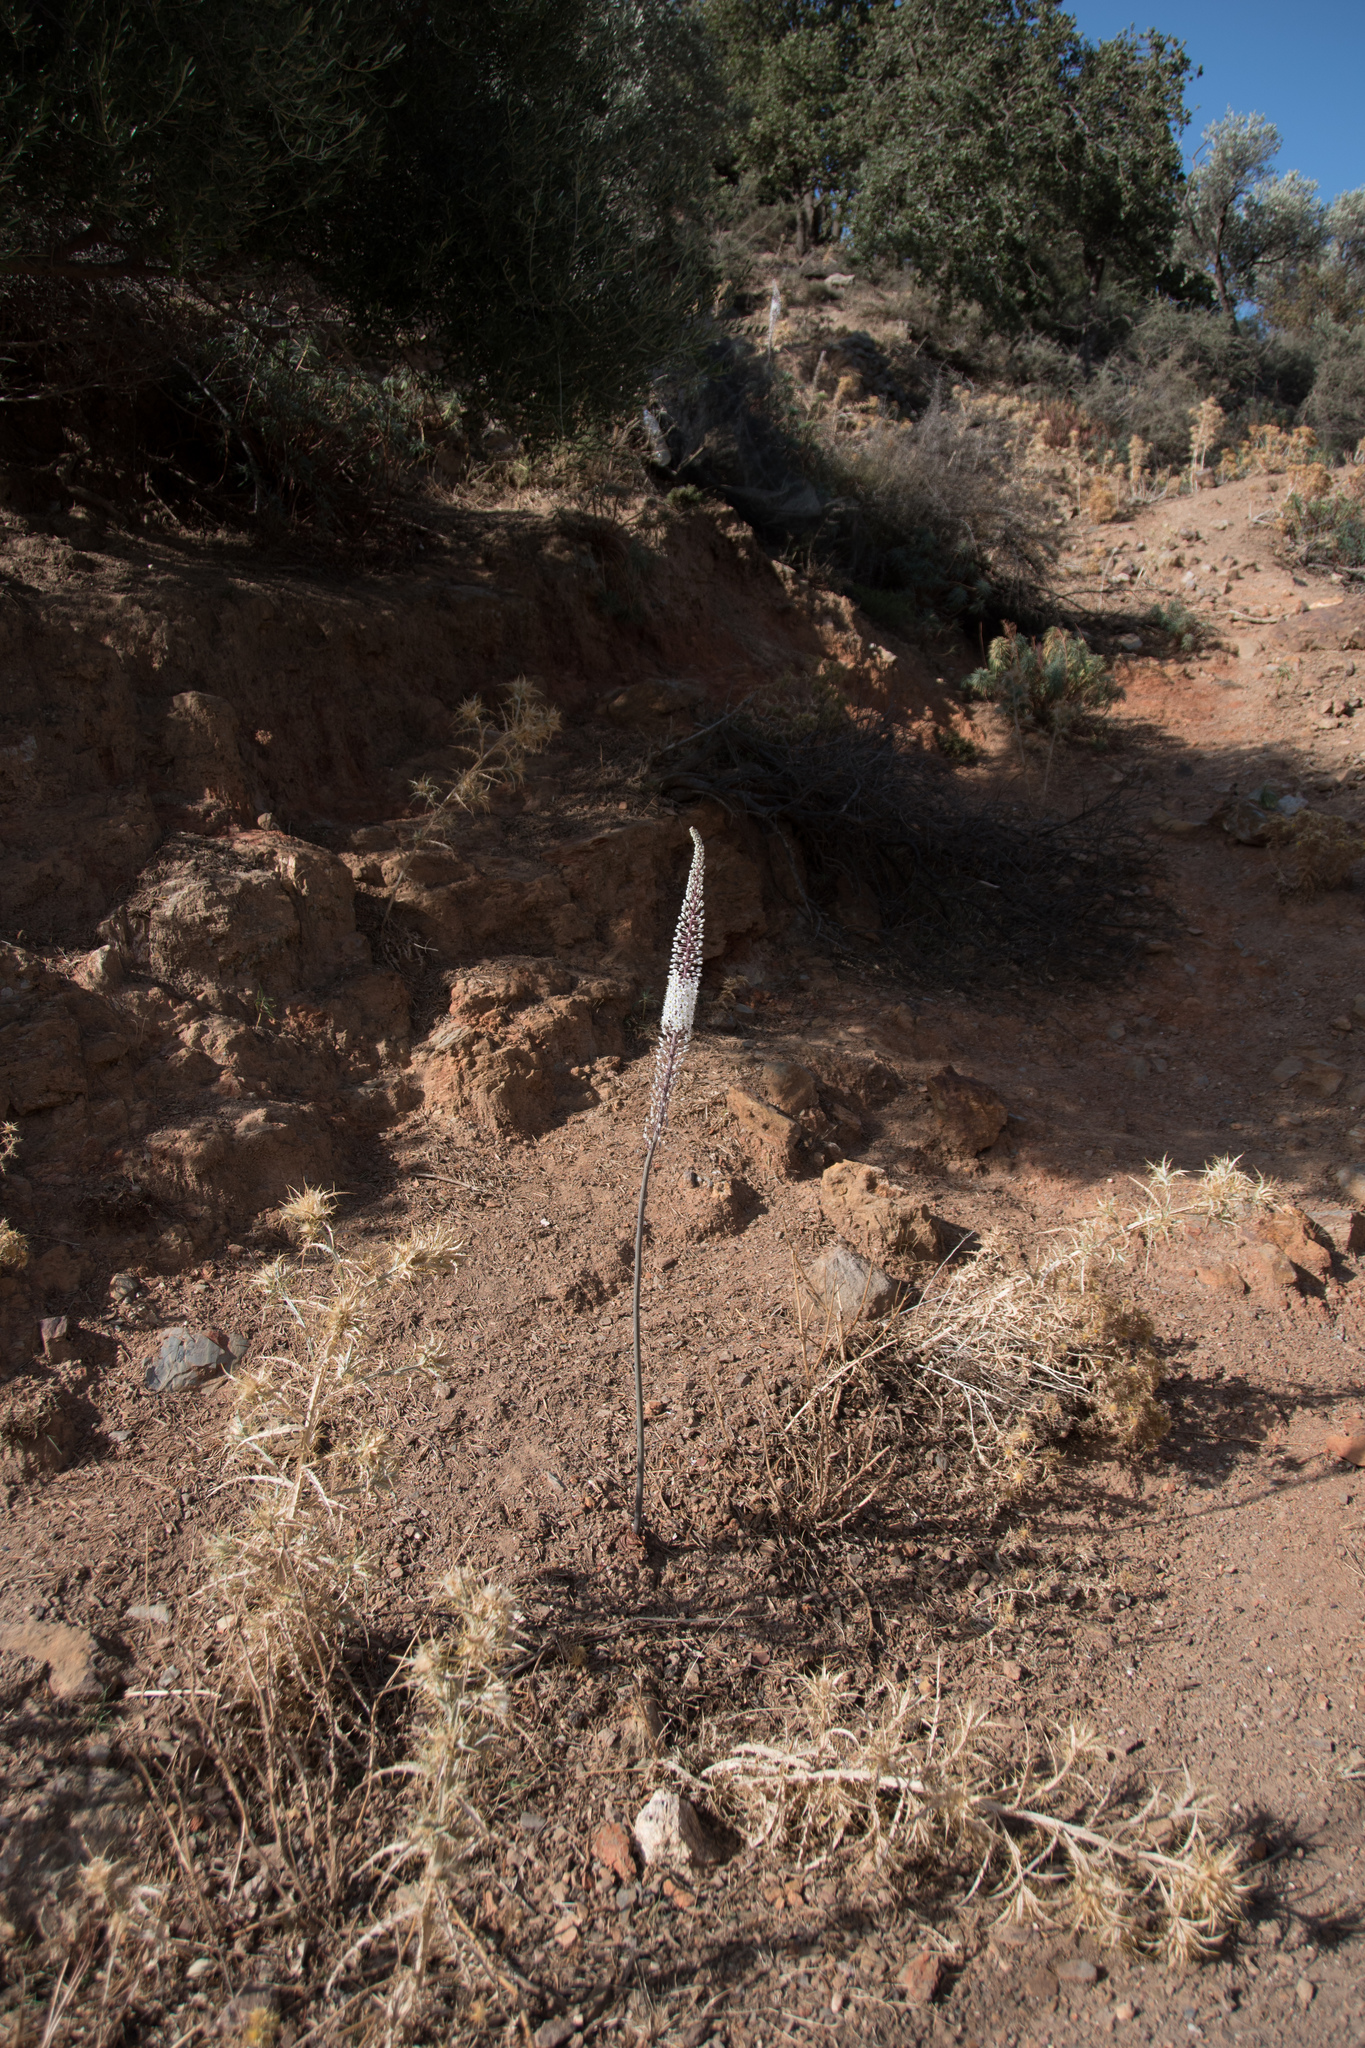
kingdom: Plantae
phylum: Tracheophyta
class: Liliopsida
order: Asparagales
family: Asparagaceae
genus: Drimia
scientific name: Drimia numidica
